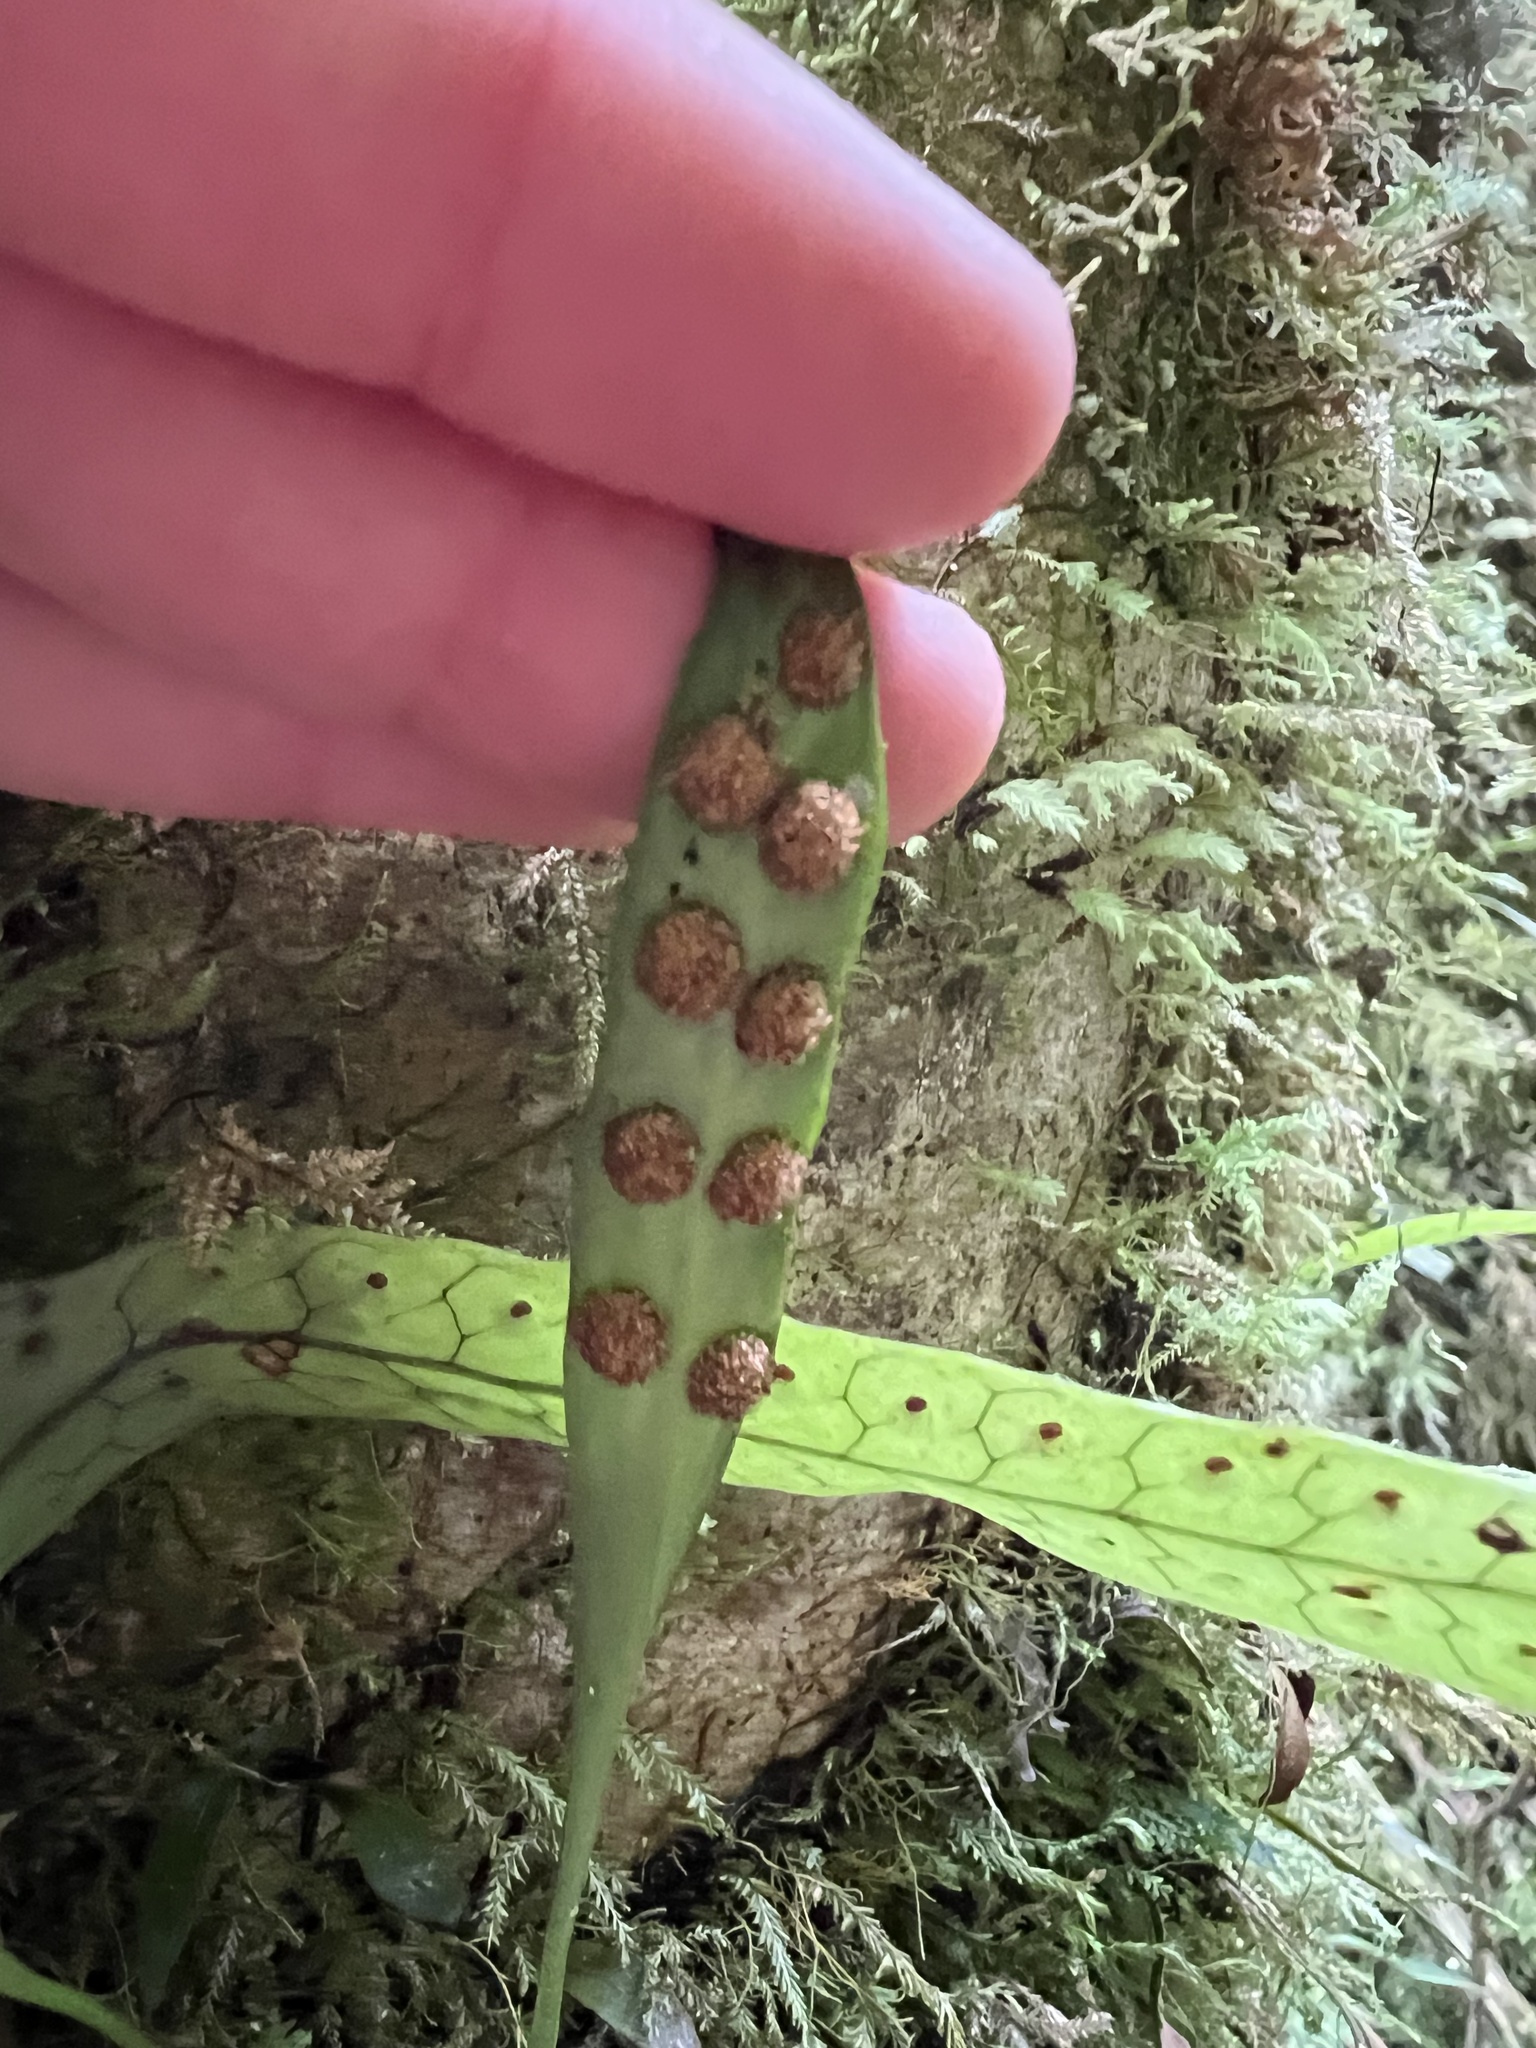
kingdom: Plantae
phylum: Tracheophyta
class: Polypodiopsida
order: Polypodiales
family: Polypodiaceae
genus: Loxogramme
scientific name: Loxogramme dictyopteris
